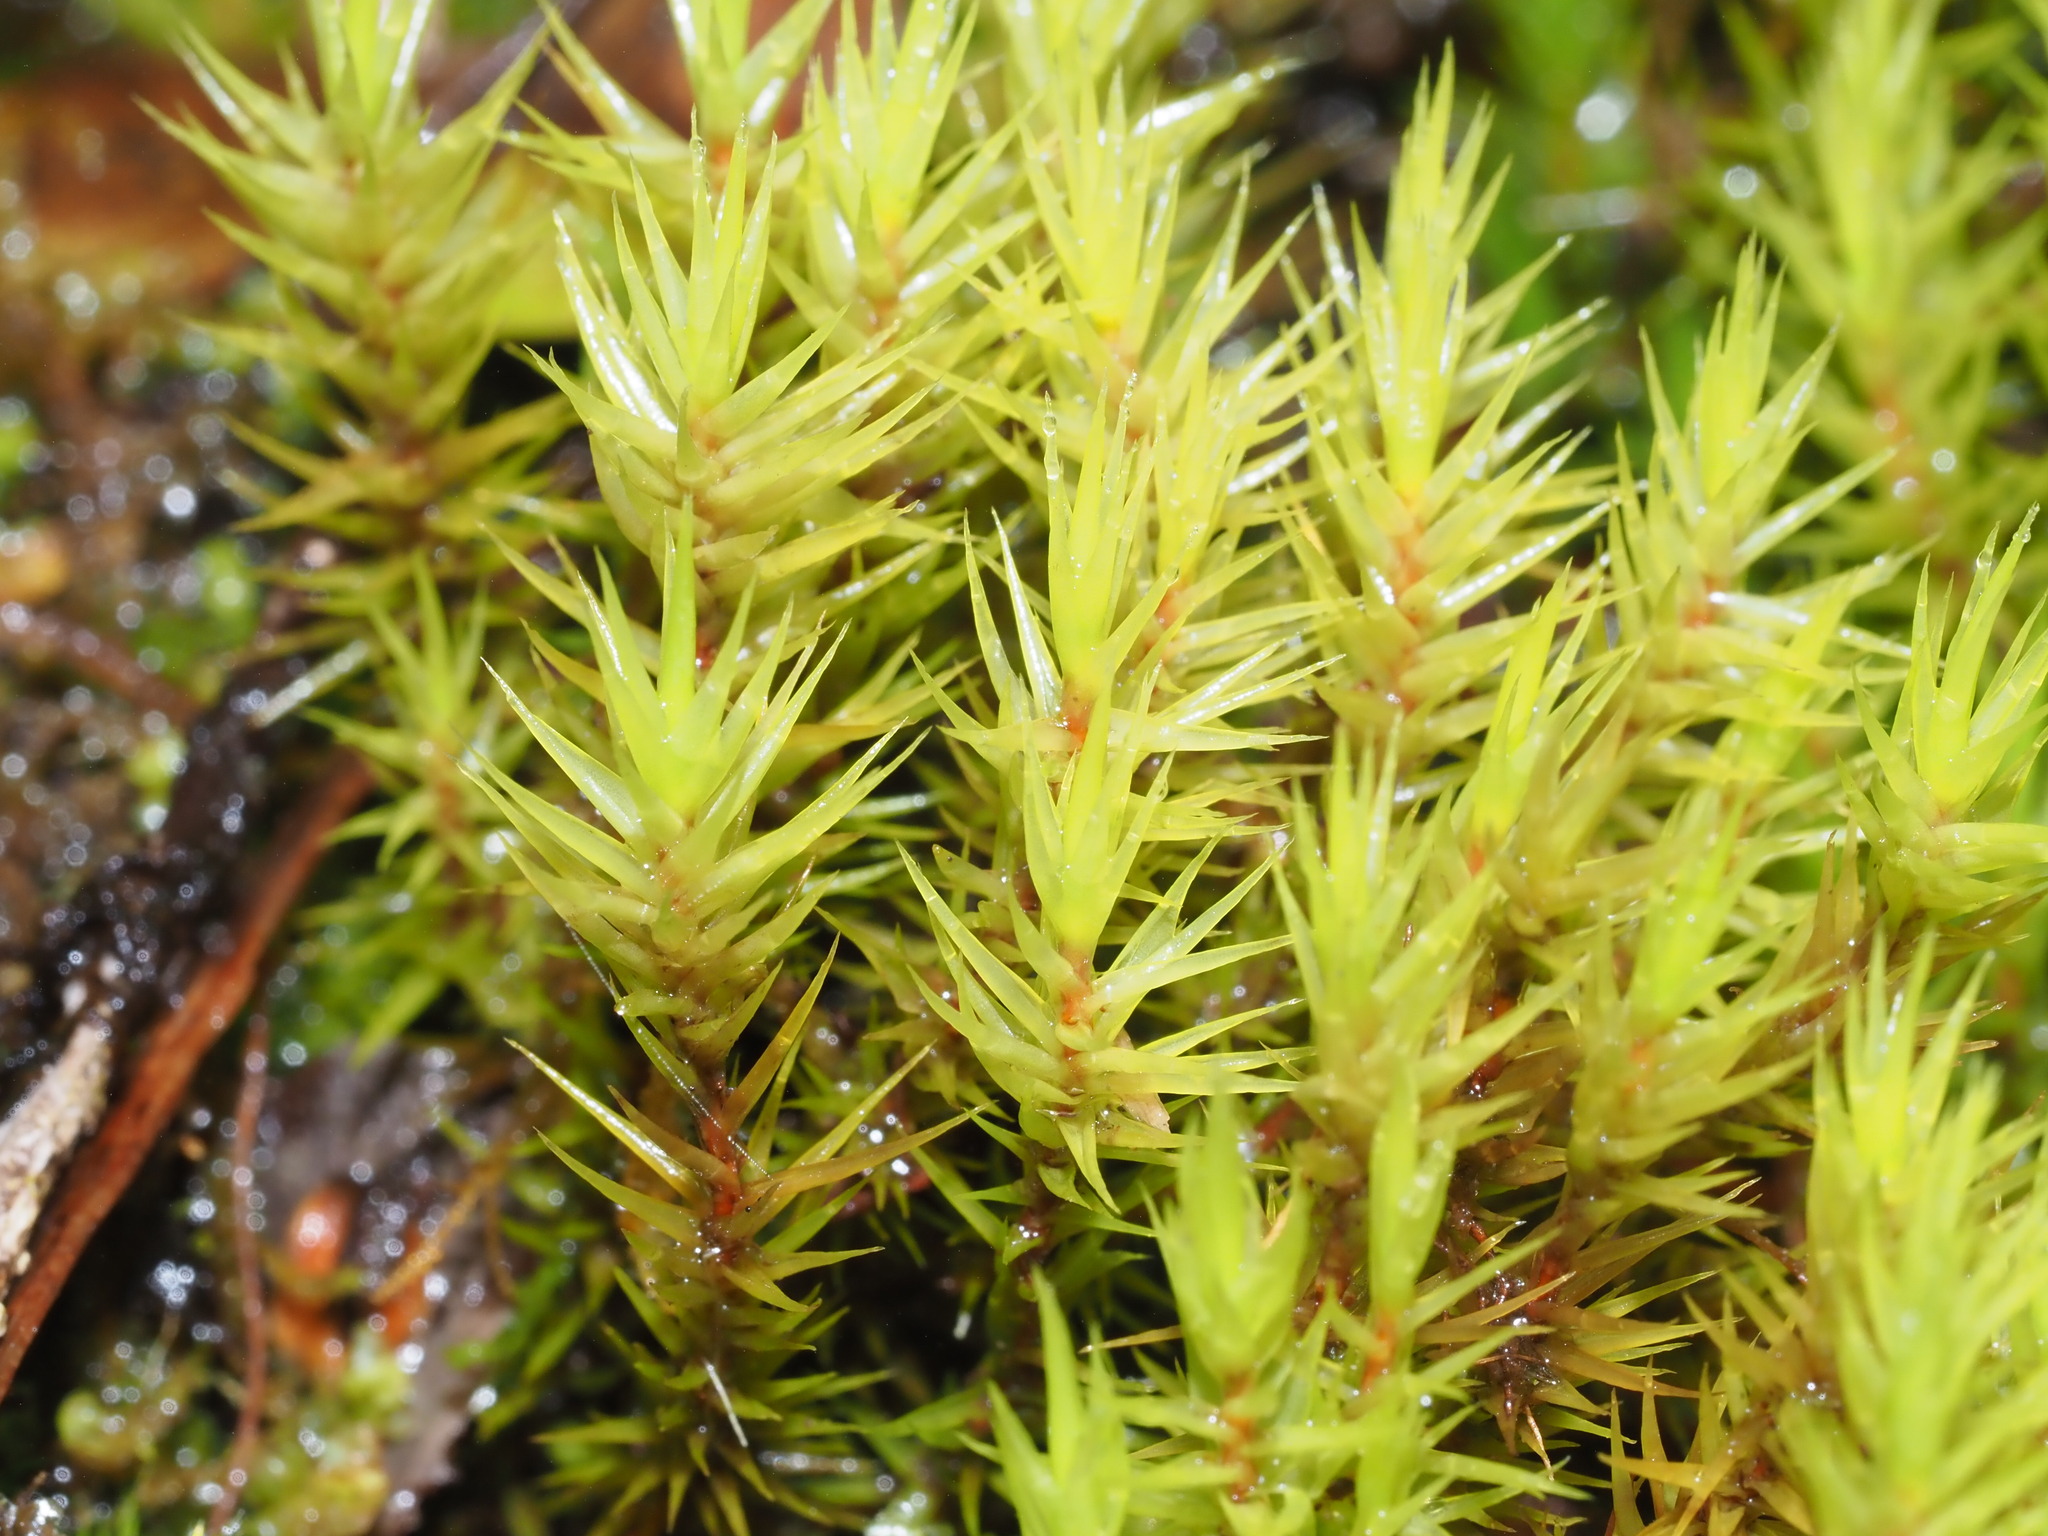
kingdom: Plantae
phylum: Bryophyta
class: Bryopsida
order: Dicranales
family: Dicranaceae
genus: Dicranum
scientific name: Dicranum speirophyllum
